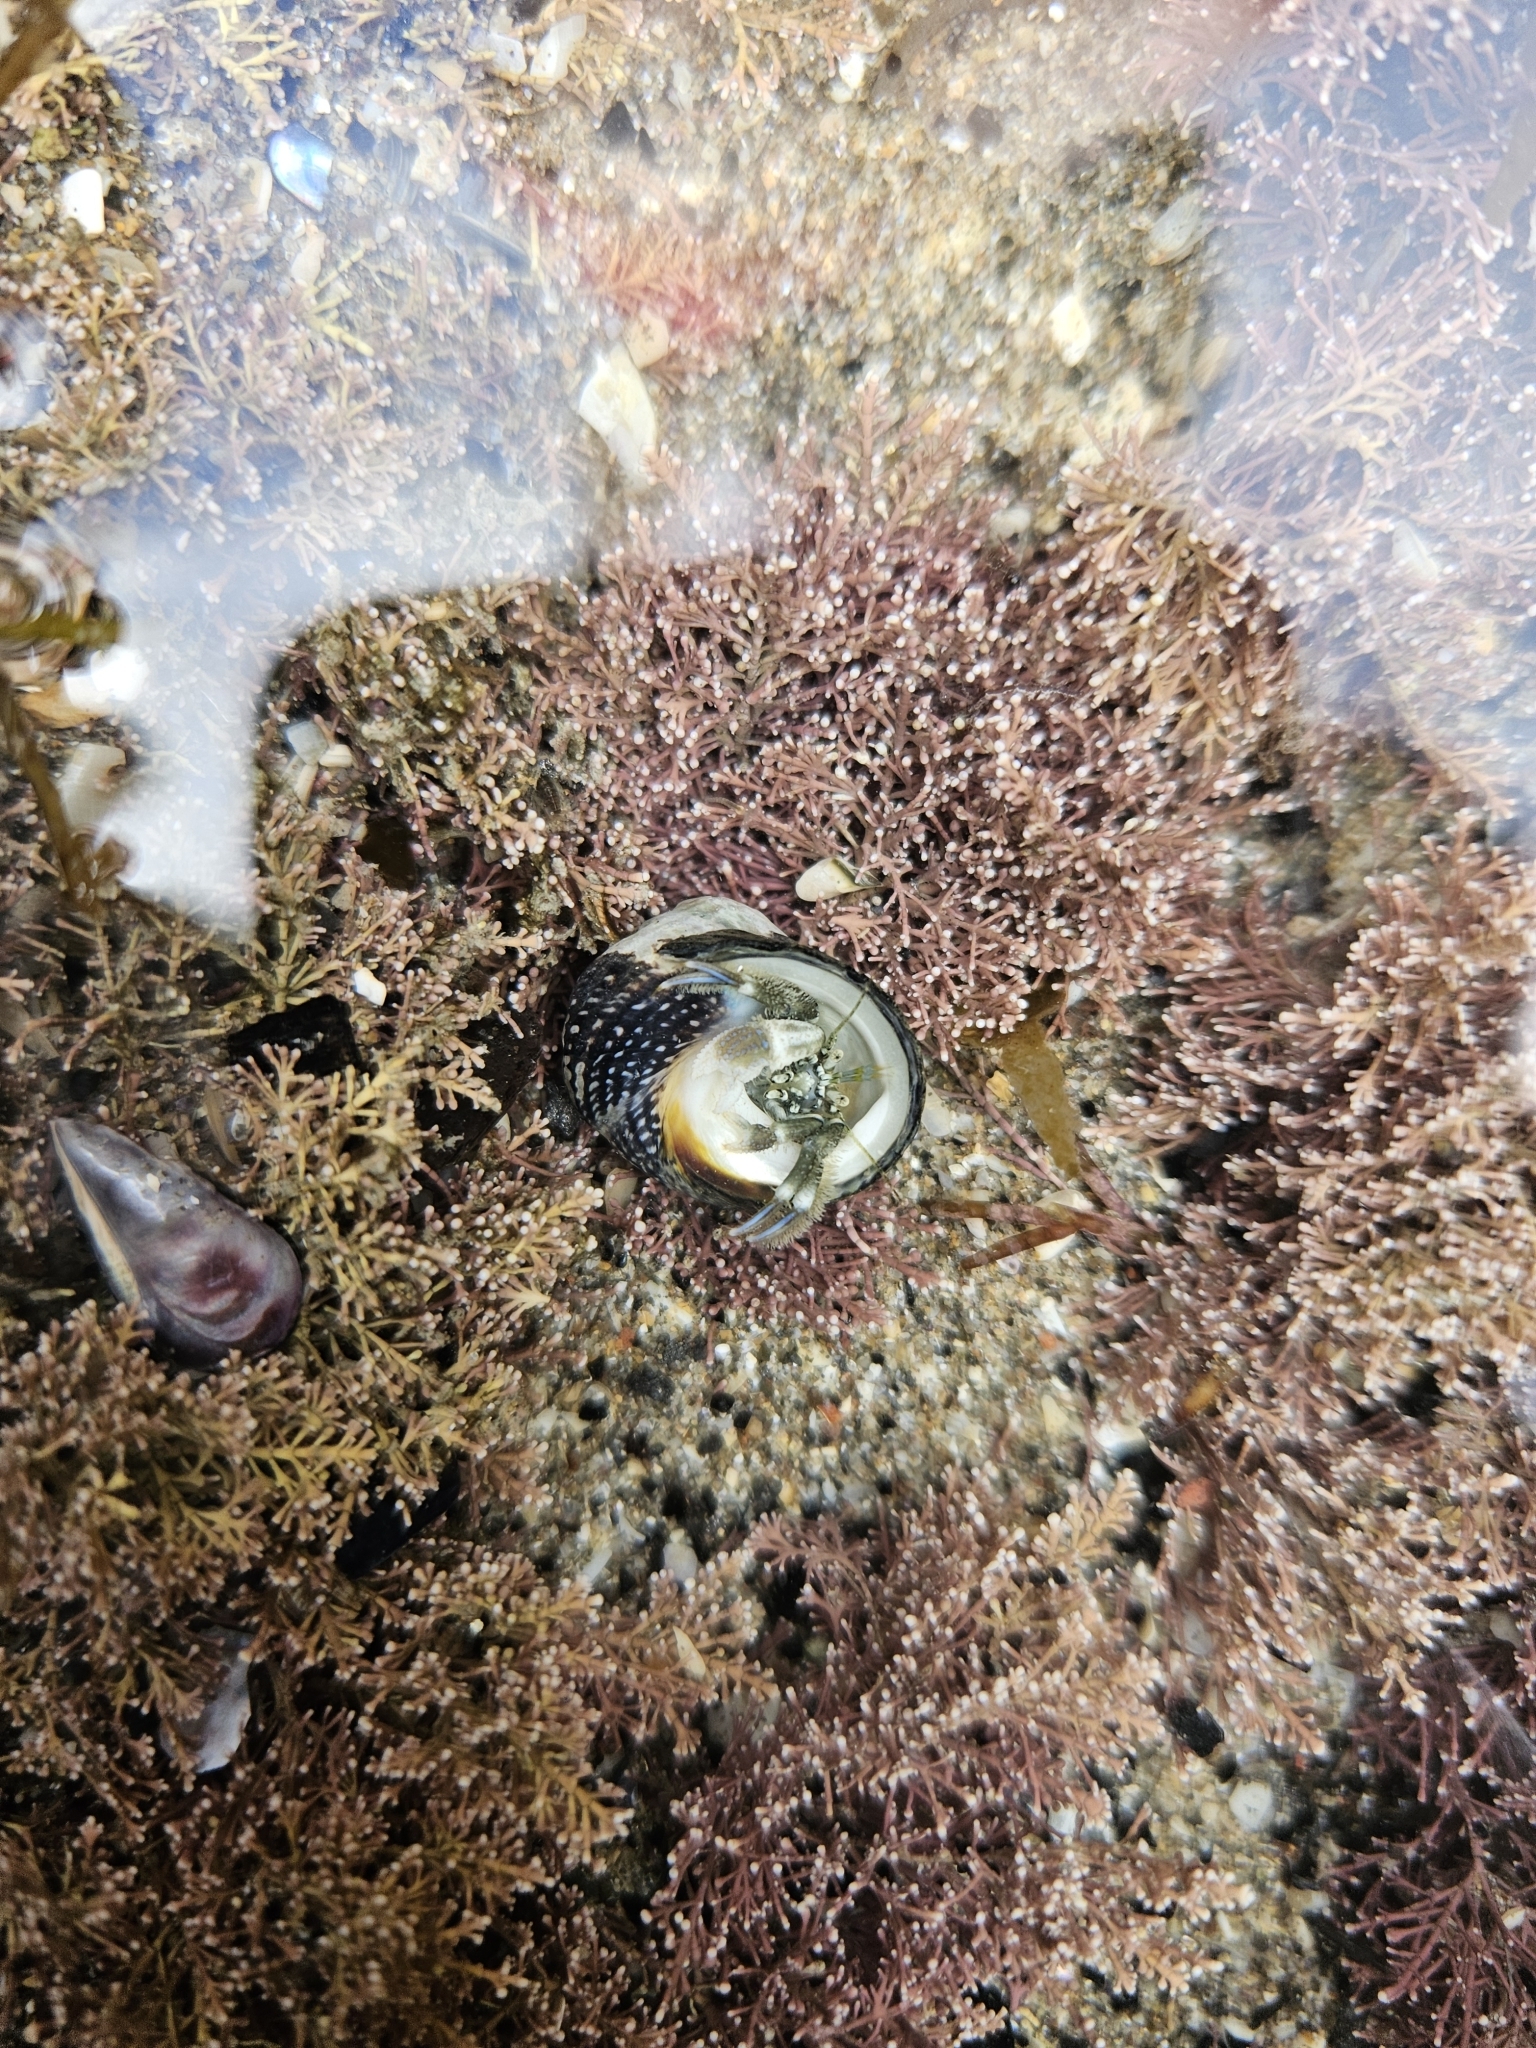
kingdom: Animalia
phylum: Arthropoda
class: Malacostraca
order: Decapoda
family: Paguridae
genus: Pagurus
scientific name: Pagurus novizealandiae
